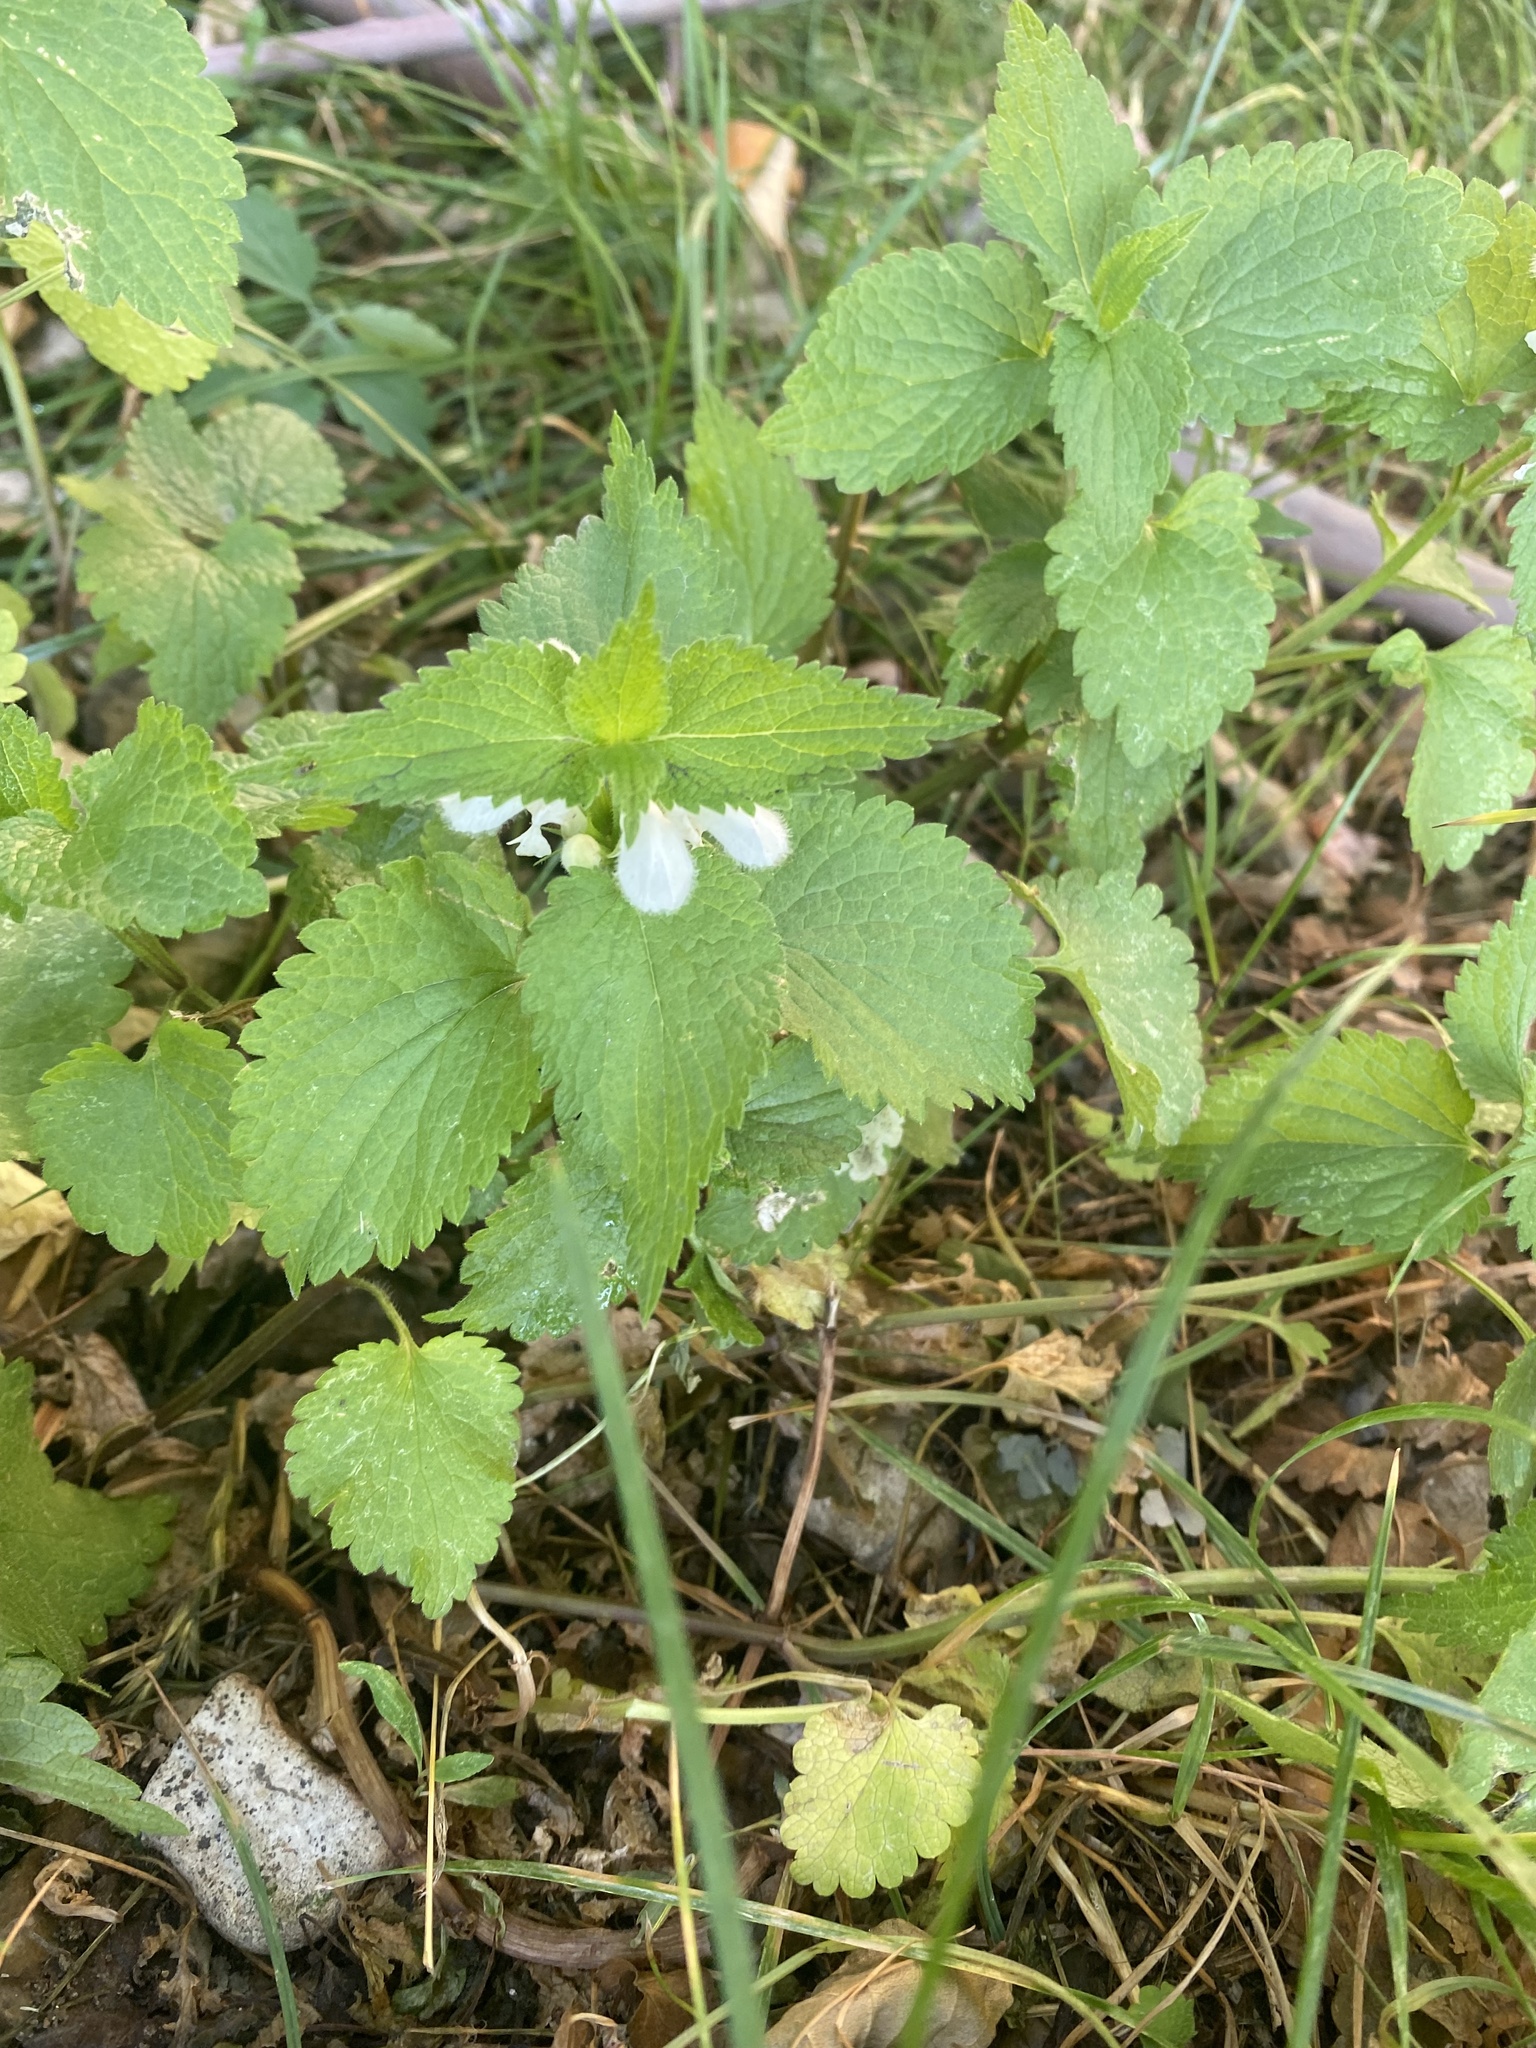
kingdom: Plantae
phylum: Tracheophyta
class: Magnoliopsida
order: Lamiales
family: Lamiaceae
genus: Lamium
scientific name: Lamium album
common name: White dead-nettle
